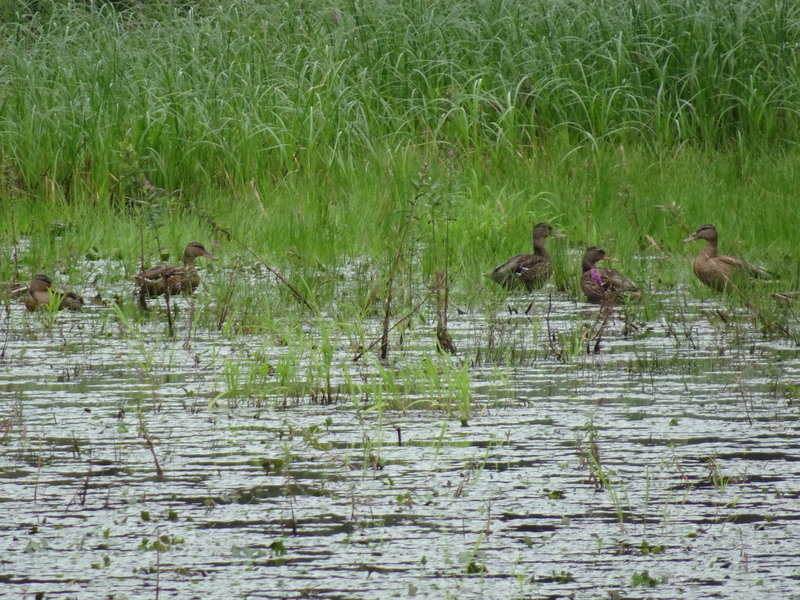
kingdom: Animalia
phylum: Chordata
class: Aves
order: Anseriformes
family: Anatidae
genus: Anas
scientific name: Anas platyrhynchos
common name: Mallard
